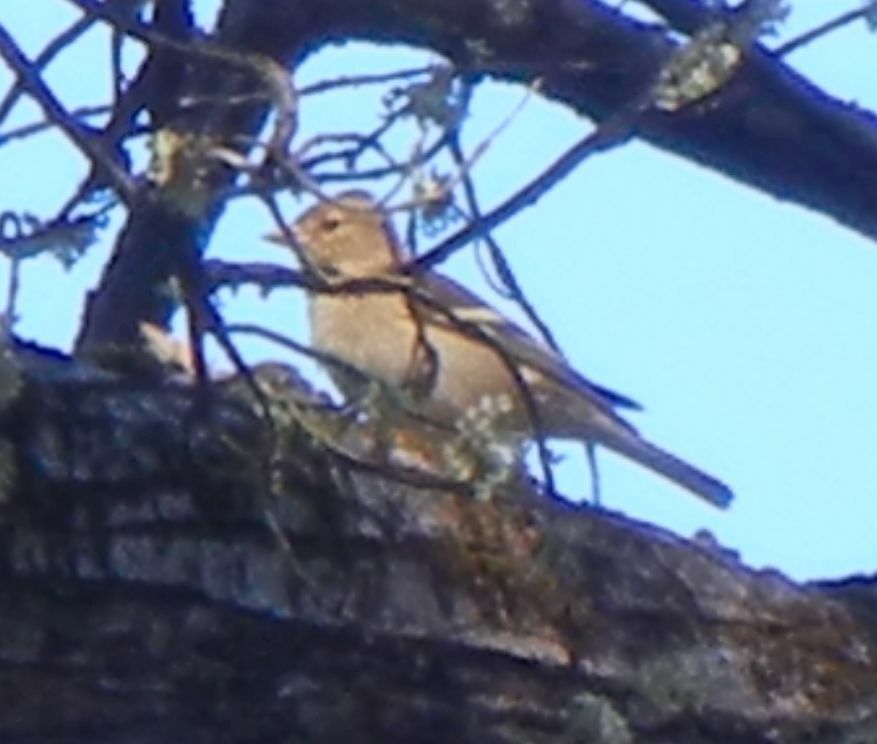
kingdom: Animalia
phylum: Chordata
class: Aves
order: Passeriformes
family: Fringillidae
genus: Fringilla
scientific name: Fringilla coelebs
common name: Common chaffinch
